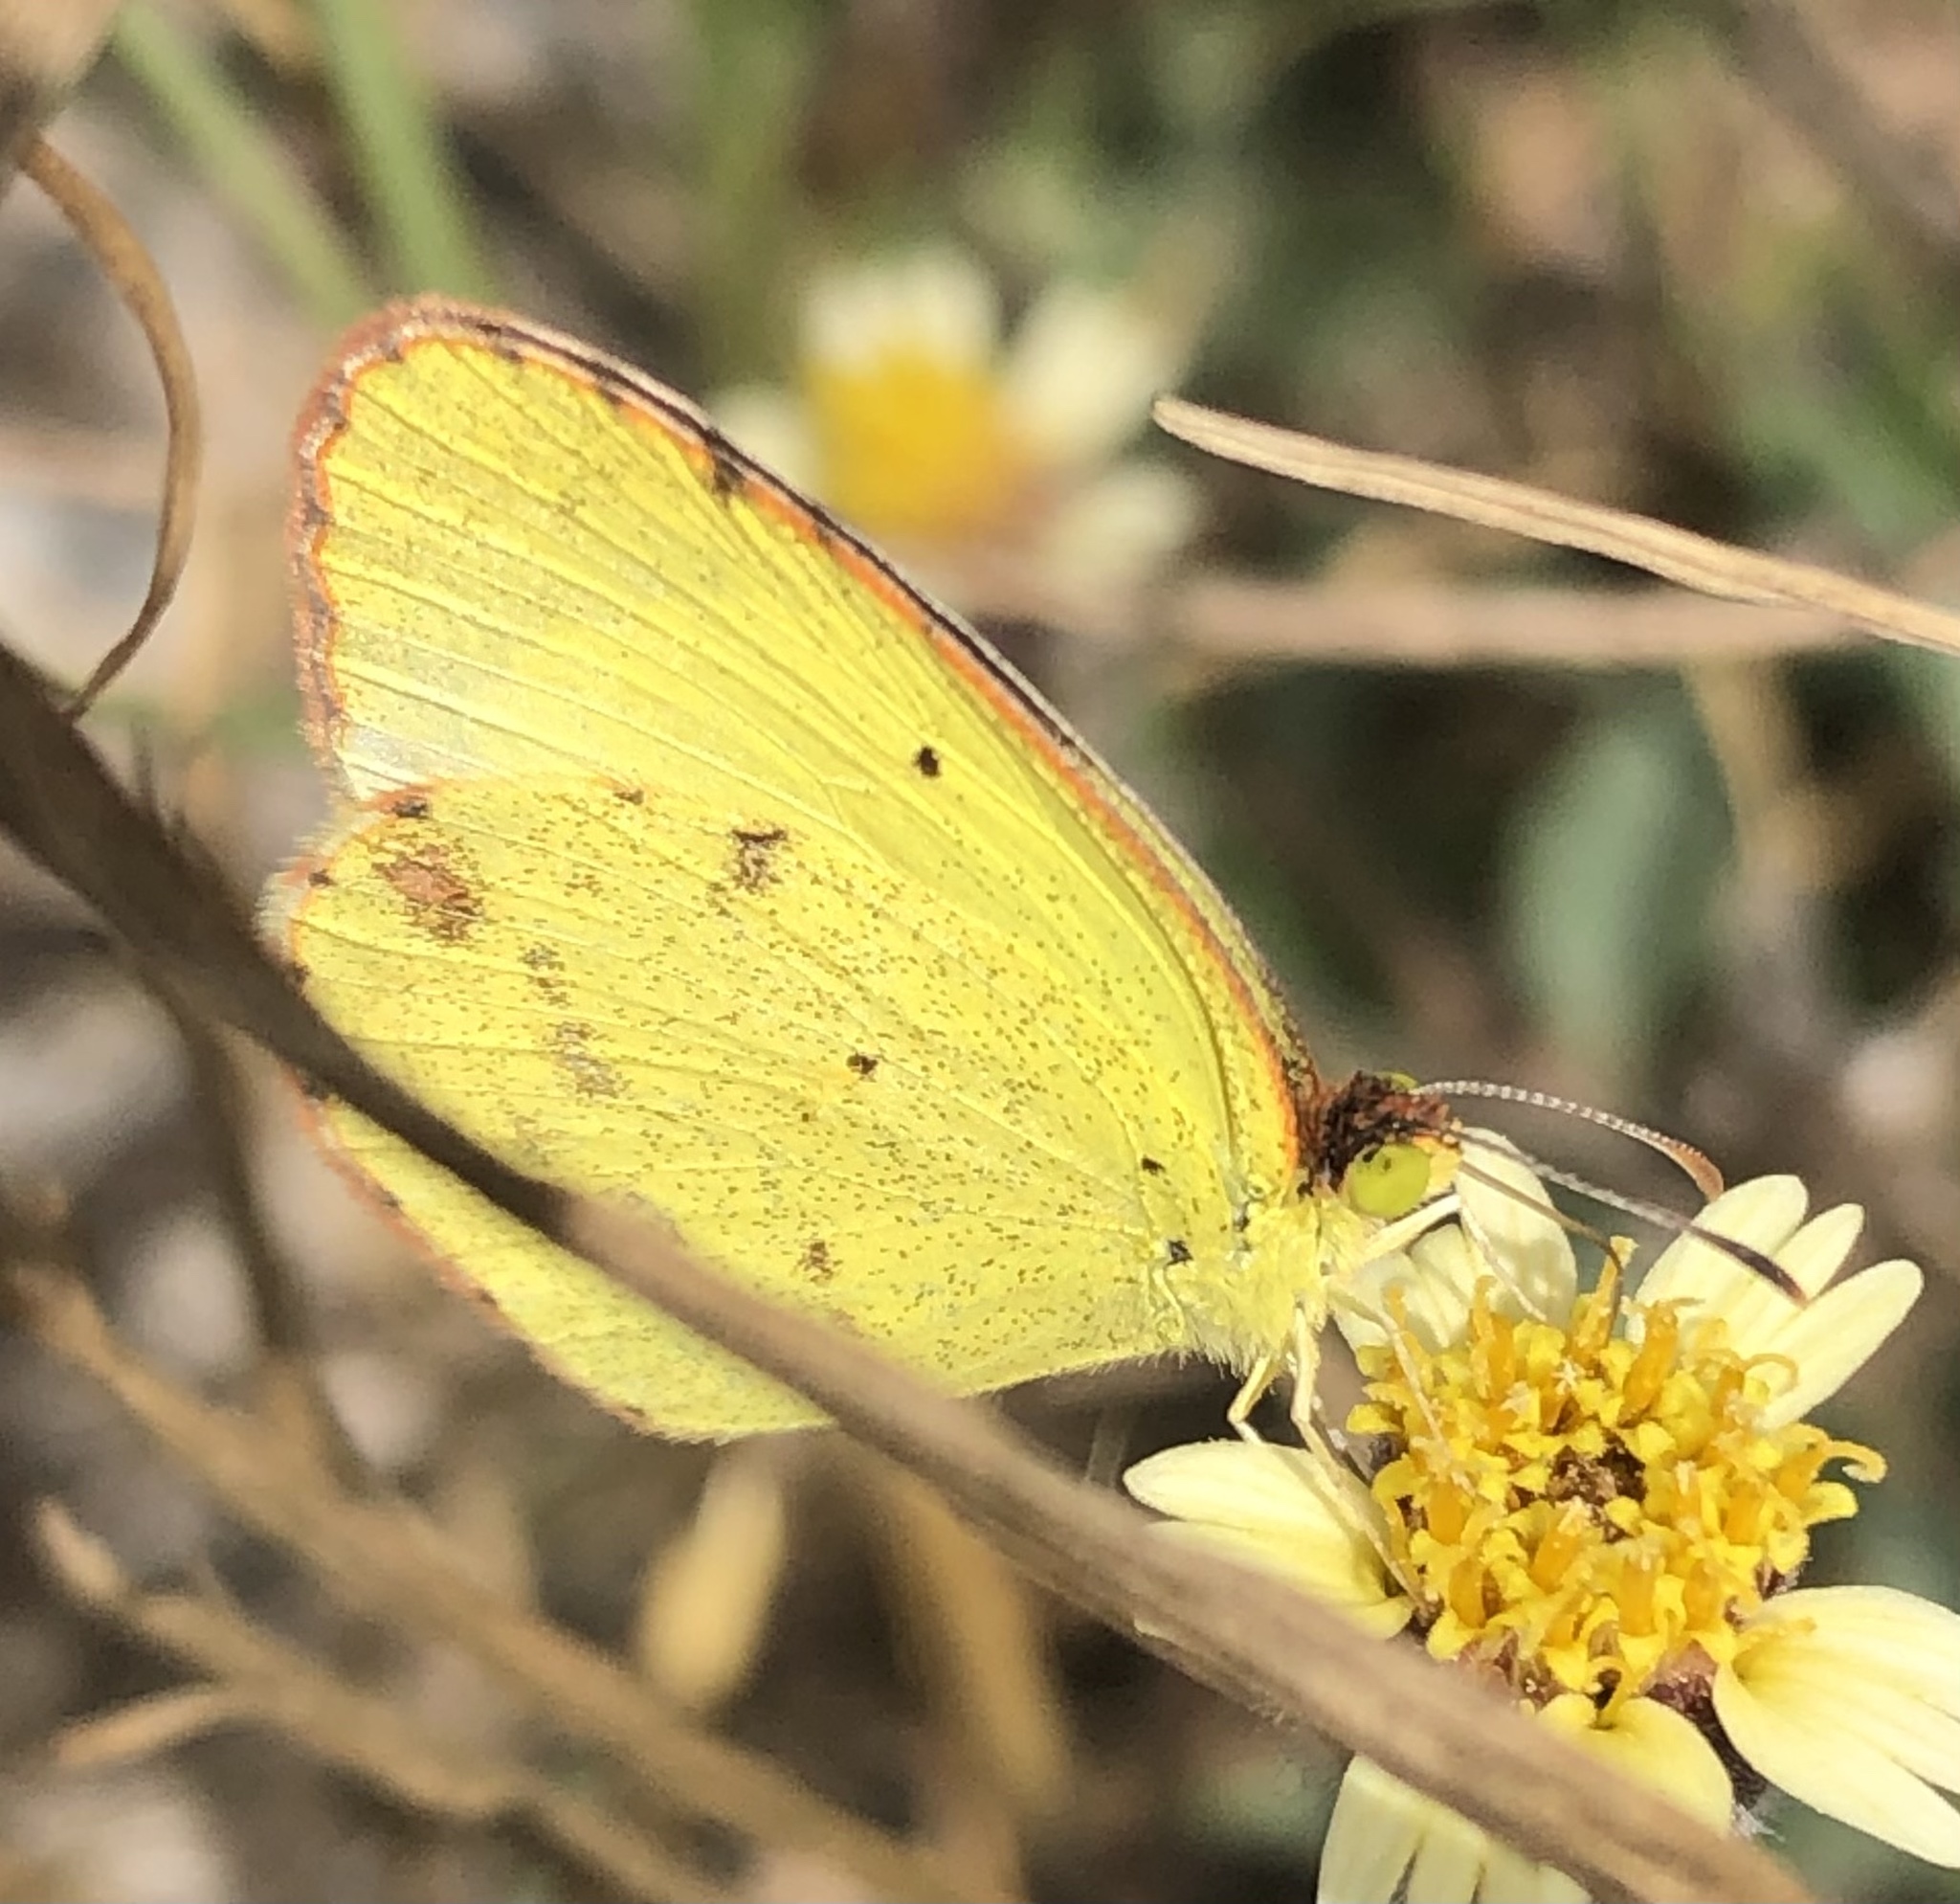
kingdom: Animalia
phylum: Arthropoda
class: Insecta
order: Lepidoptera
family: Pieridae
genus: Pyrisitia
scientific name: Pyrisitia lisa
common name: Little yellow
